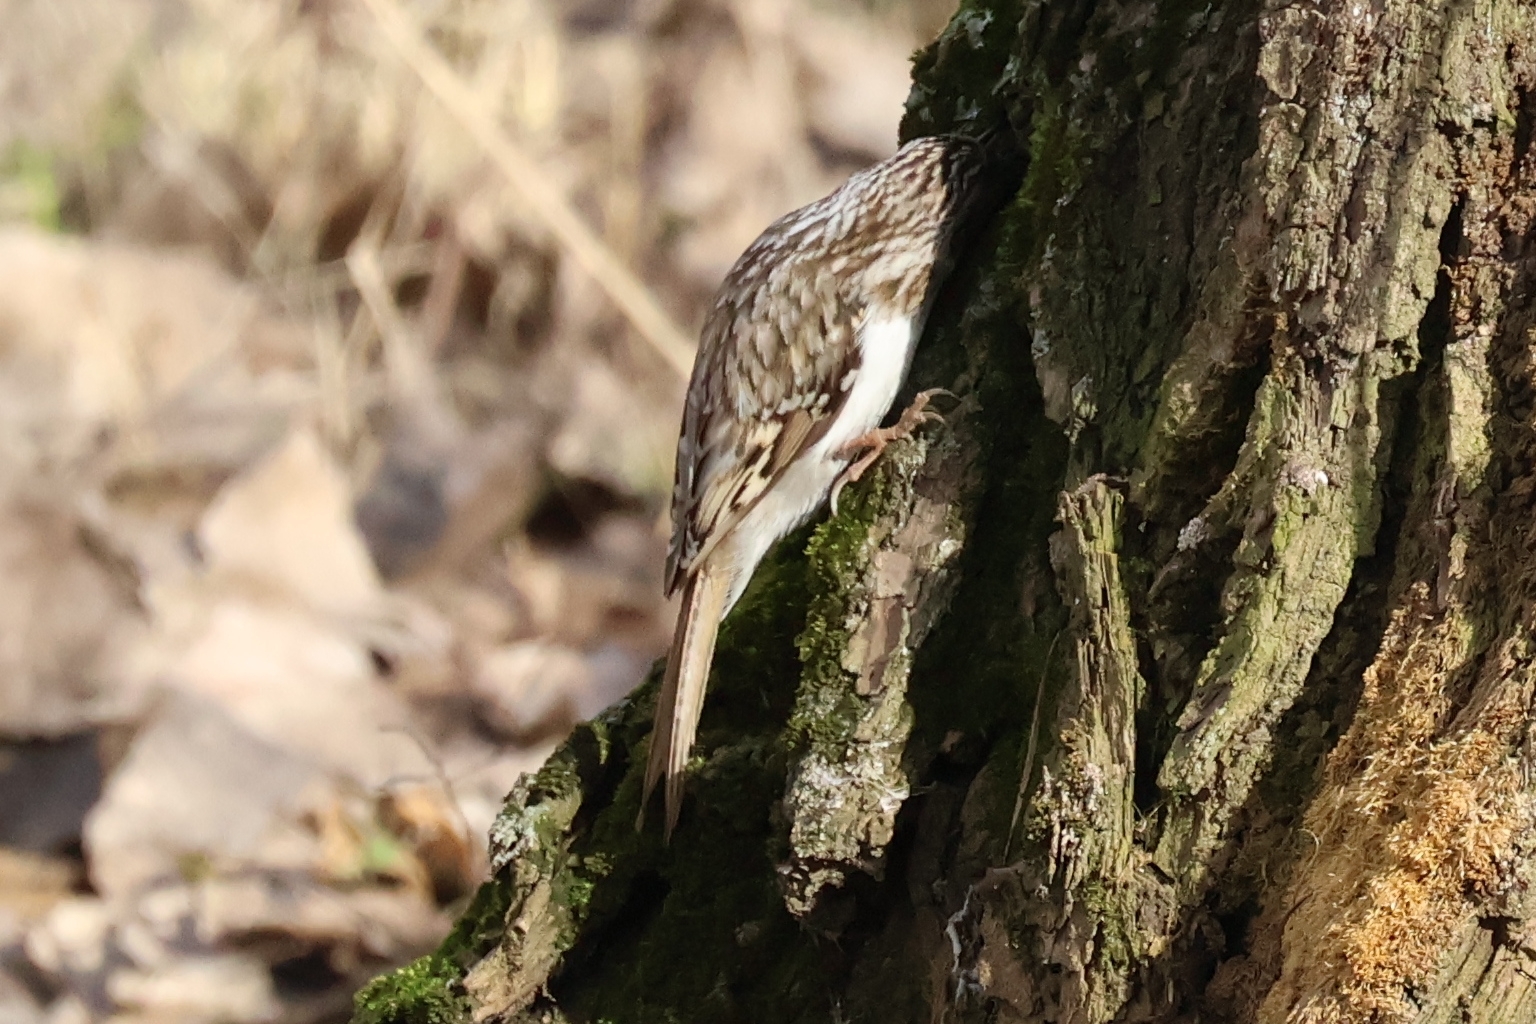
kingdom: Animalia
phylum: Chordata
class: Aves
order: Passeriformes
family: Certhiidae
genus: Certhia
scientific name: Certhia familiaris
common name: Eurasian treecreeper
